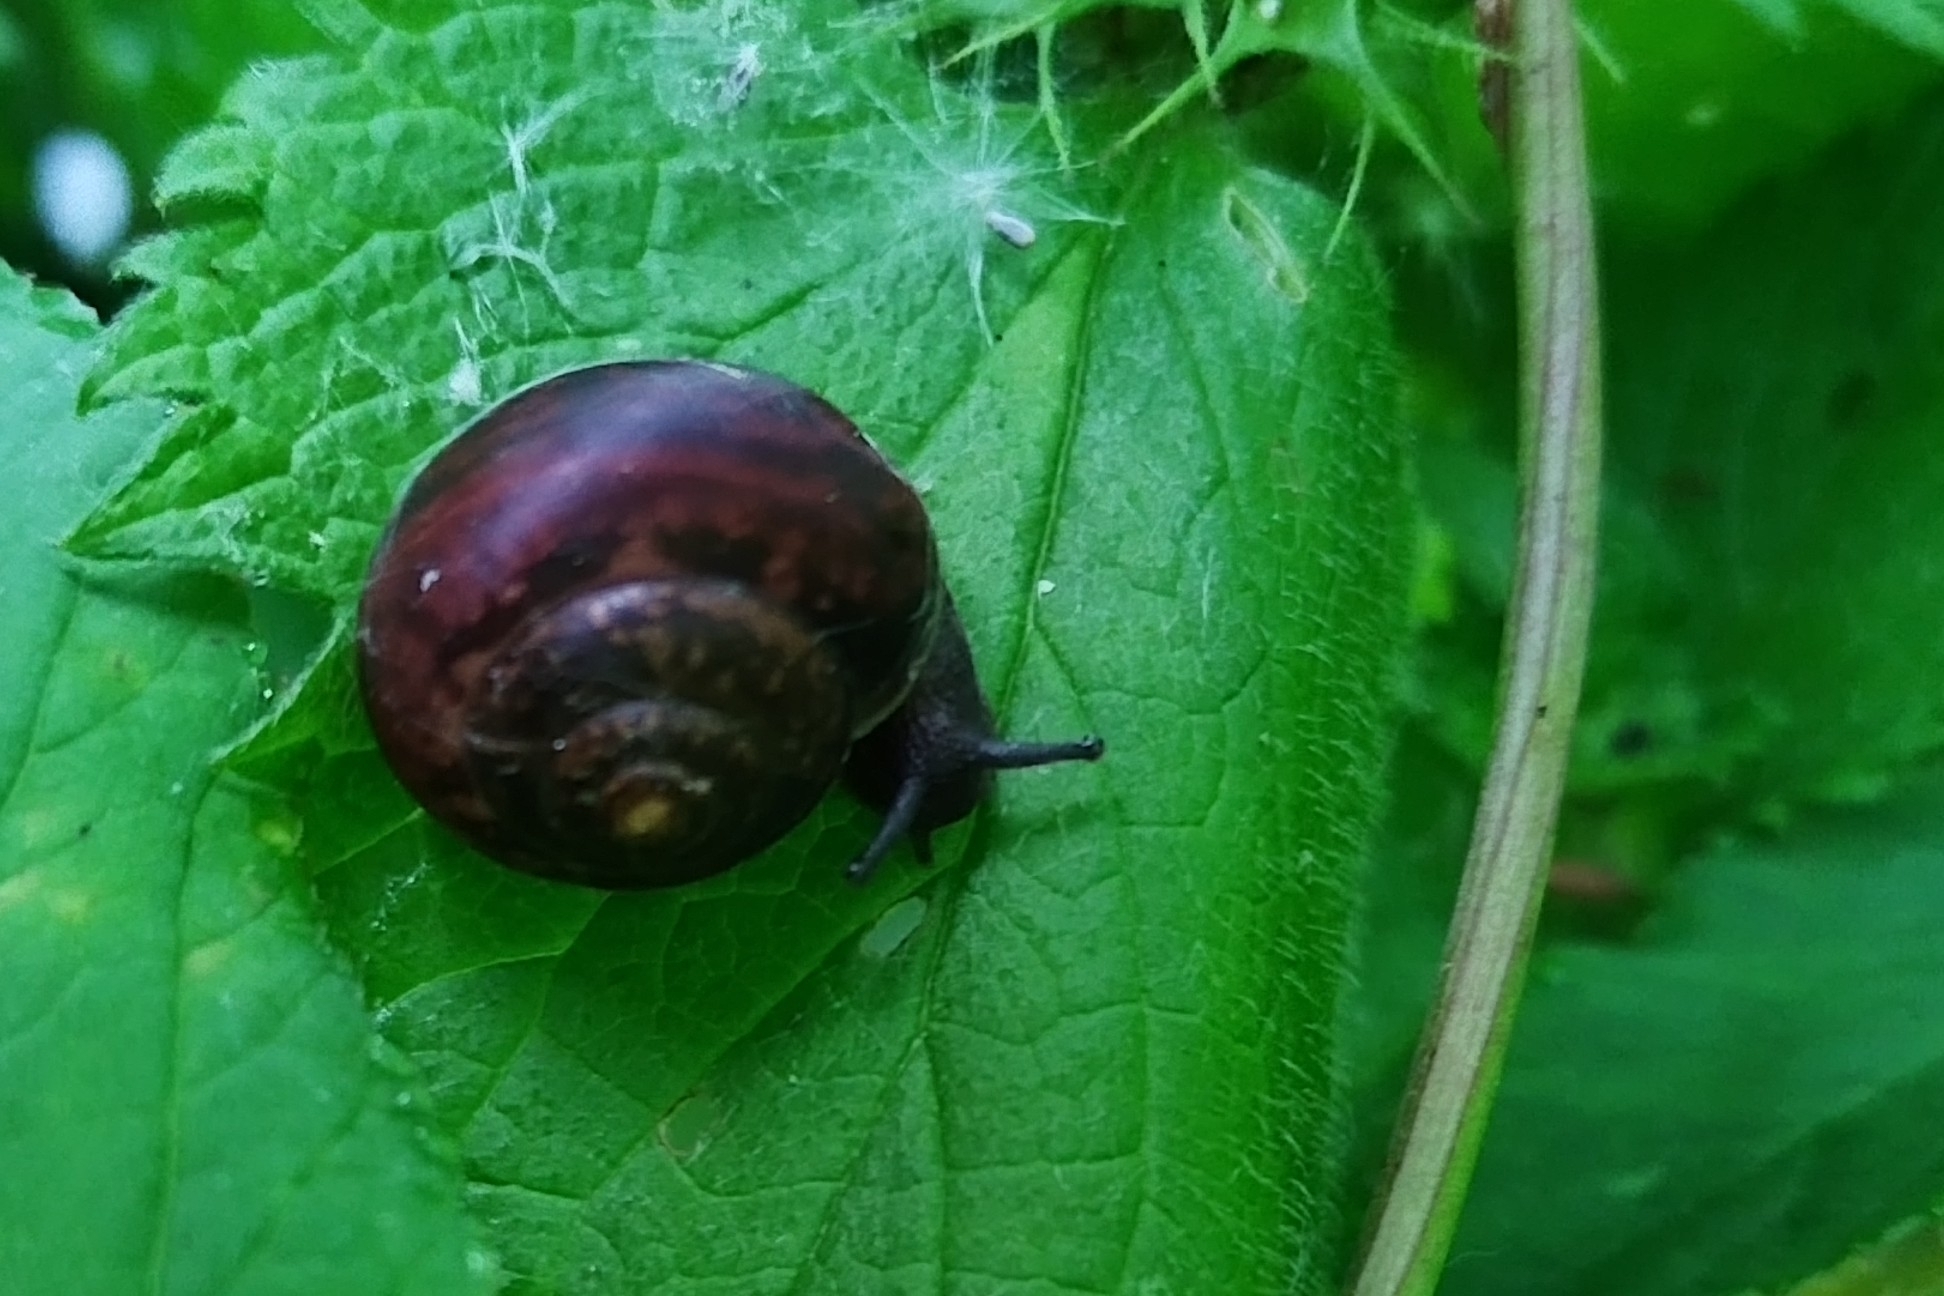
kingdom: Animalia
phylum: Mollusca
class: Gastropoda
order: Stylommatophora
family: Camaenidae
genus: Fruticicola
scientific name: Fruticicola fruticum
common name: Bush snail
